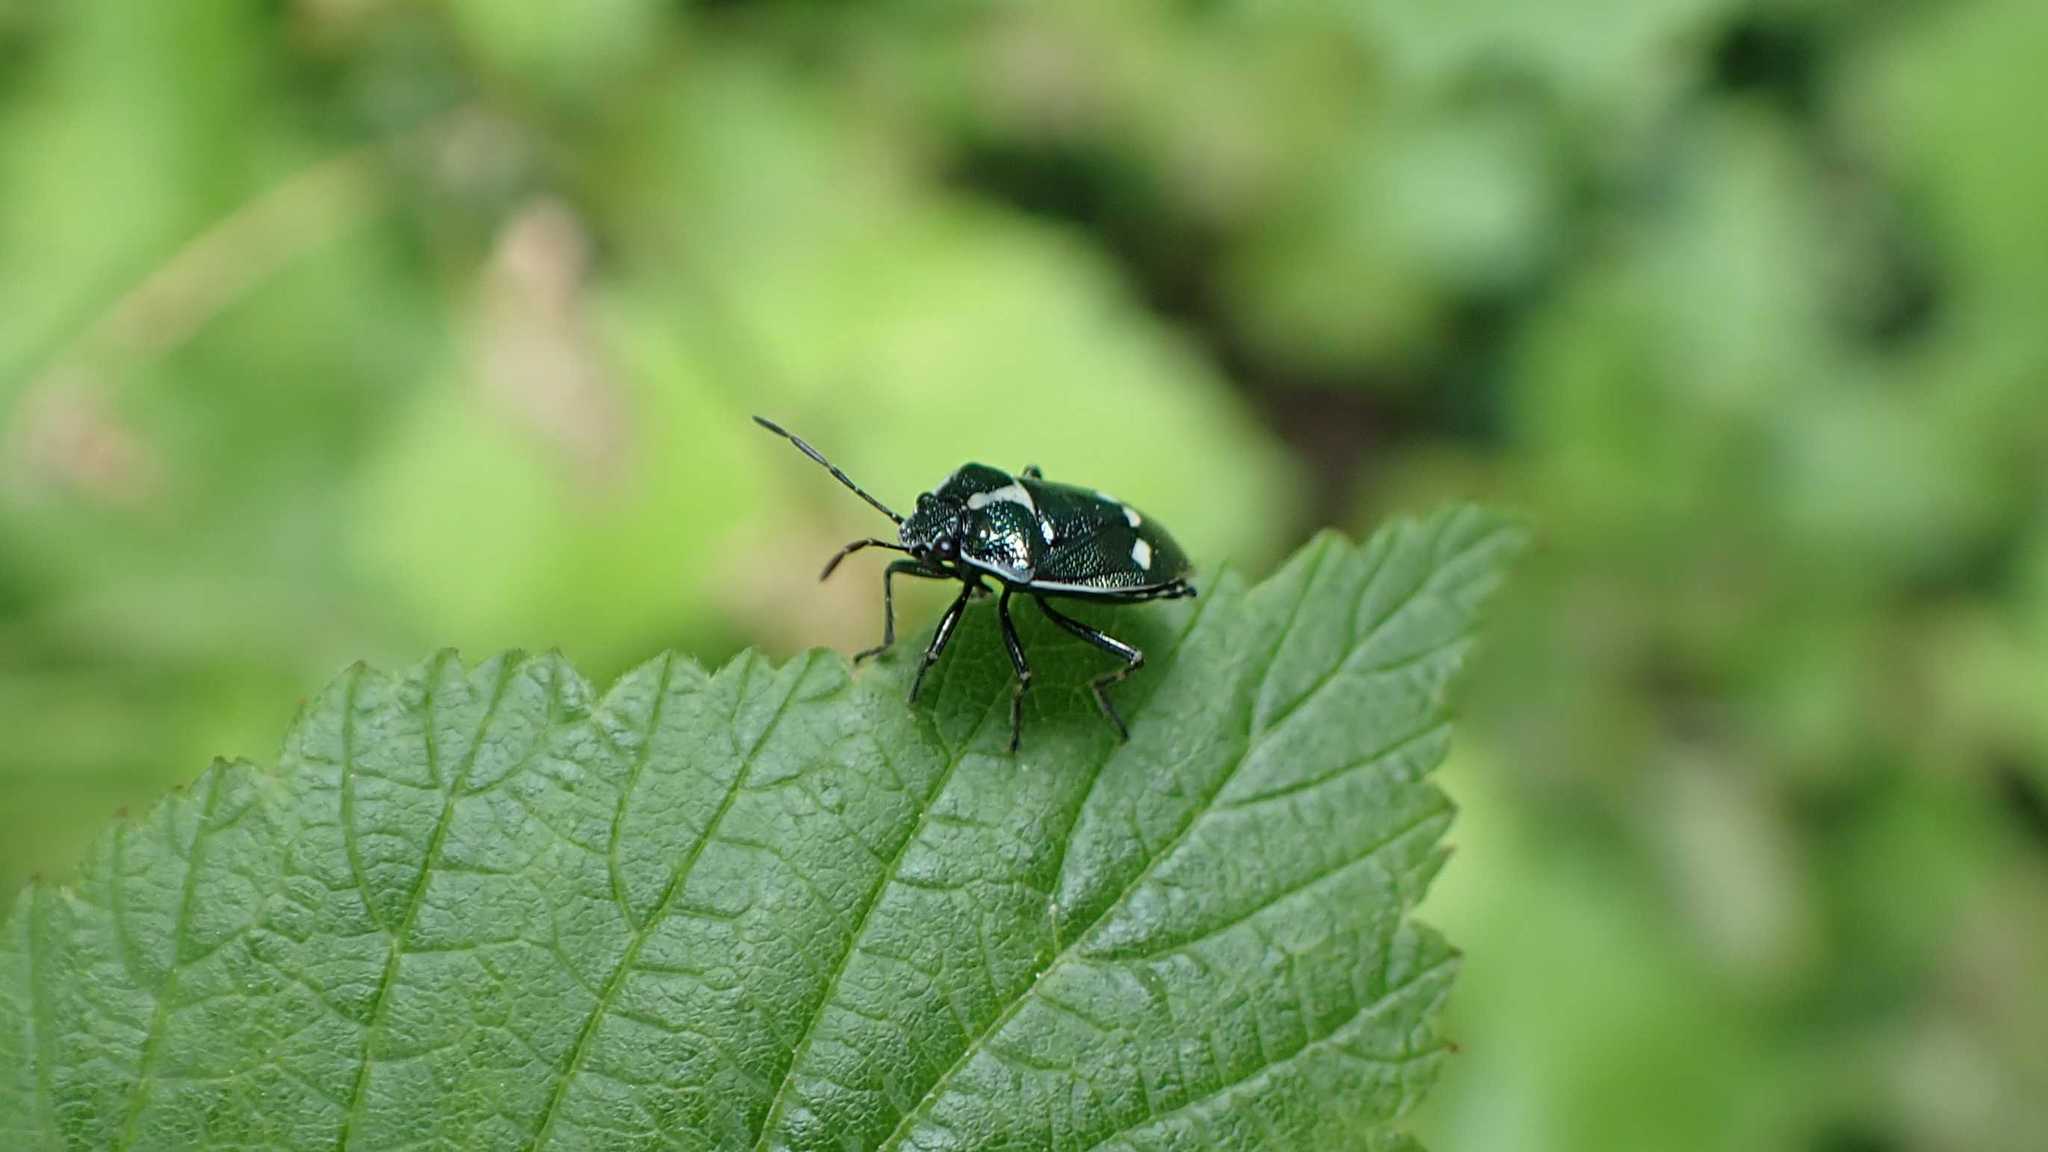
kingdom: Animalia
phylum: Arthropoda
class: Insecta
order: Hemiptera
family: Pentatomidae
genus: Eurydema
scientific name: Eurydema oleracea
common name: Cabbage bug
